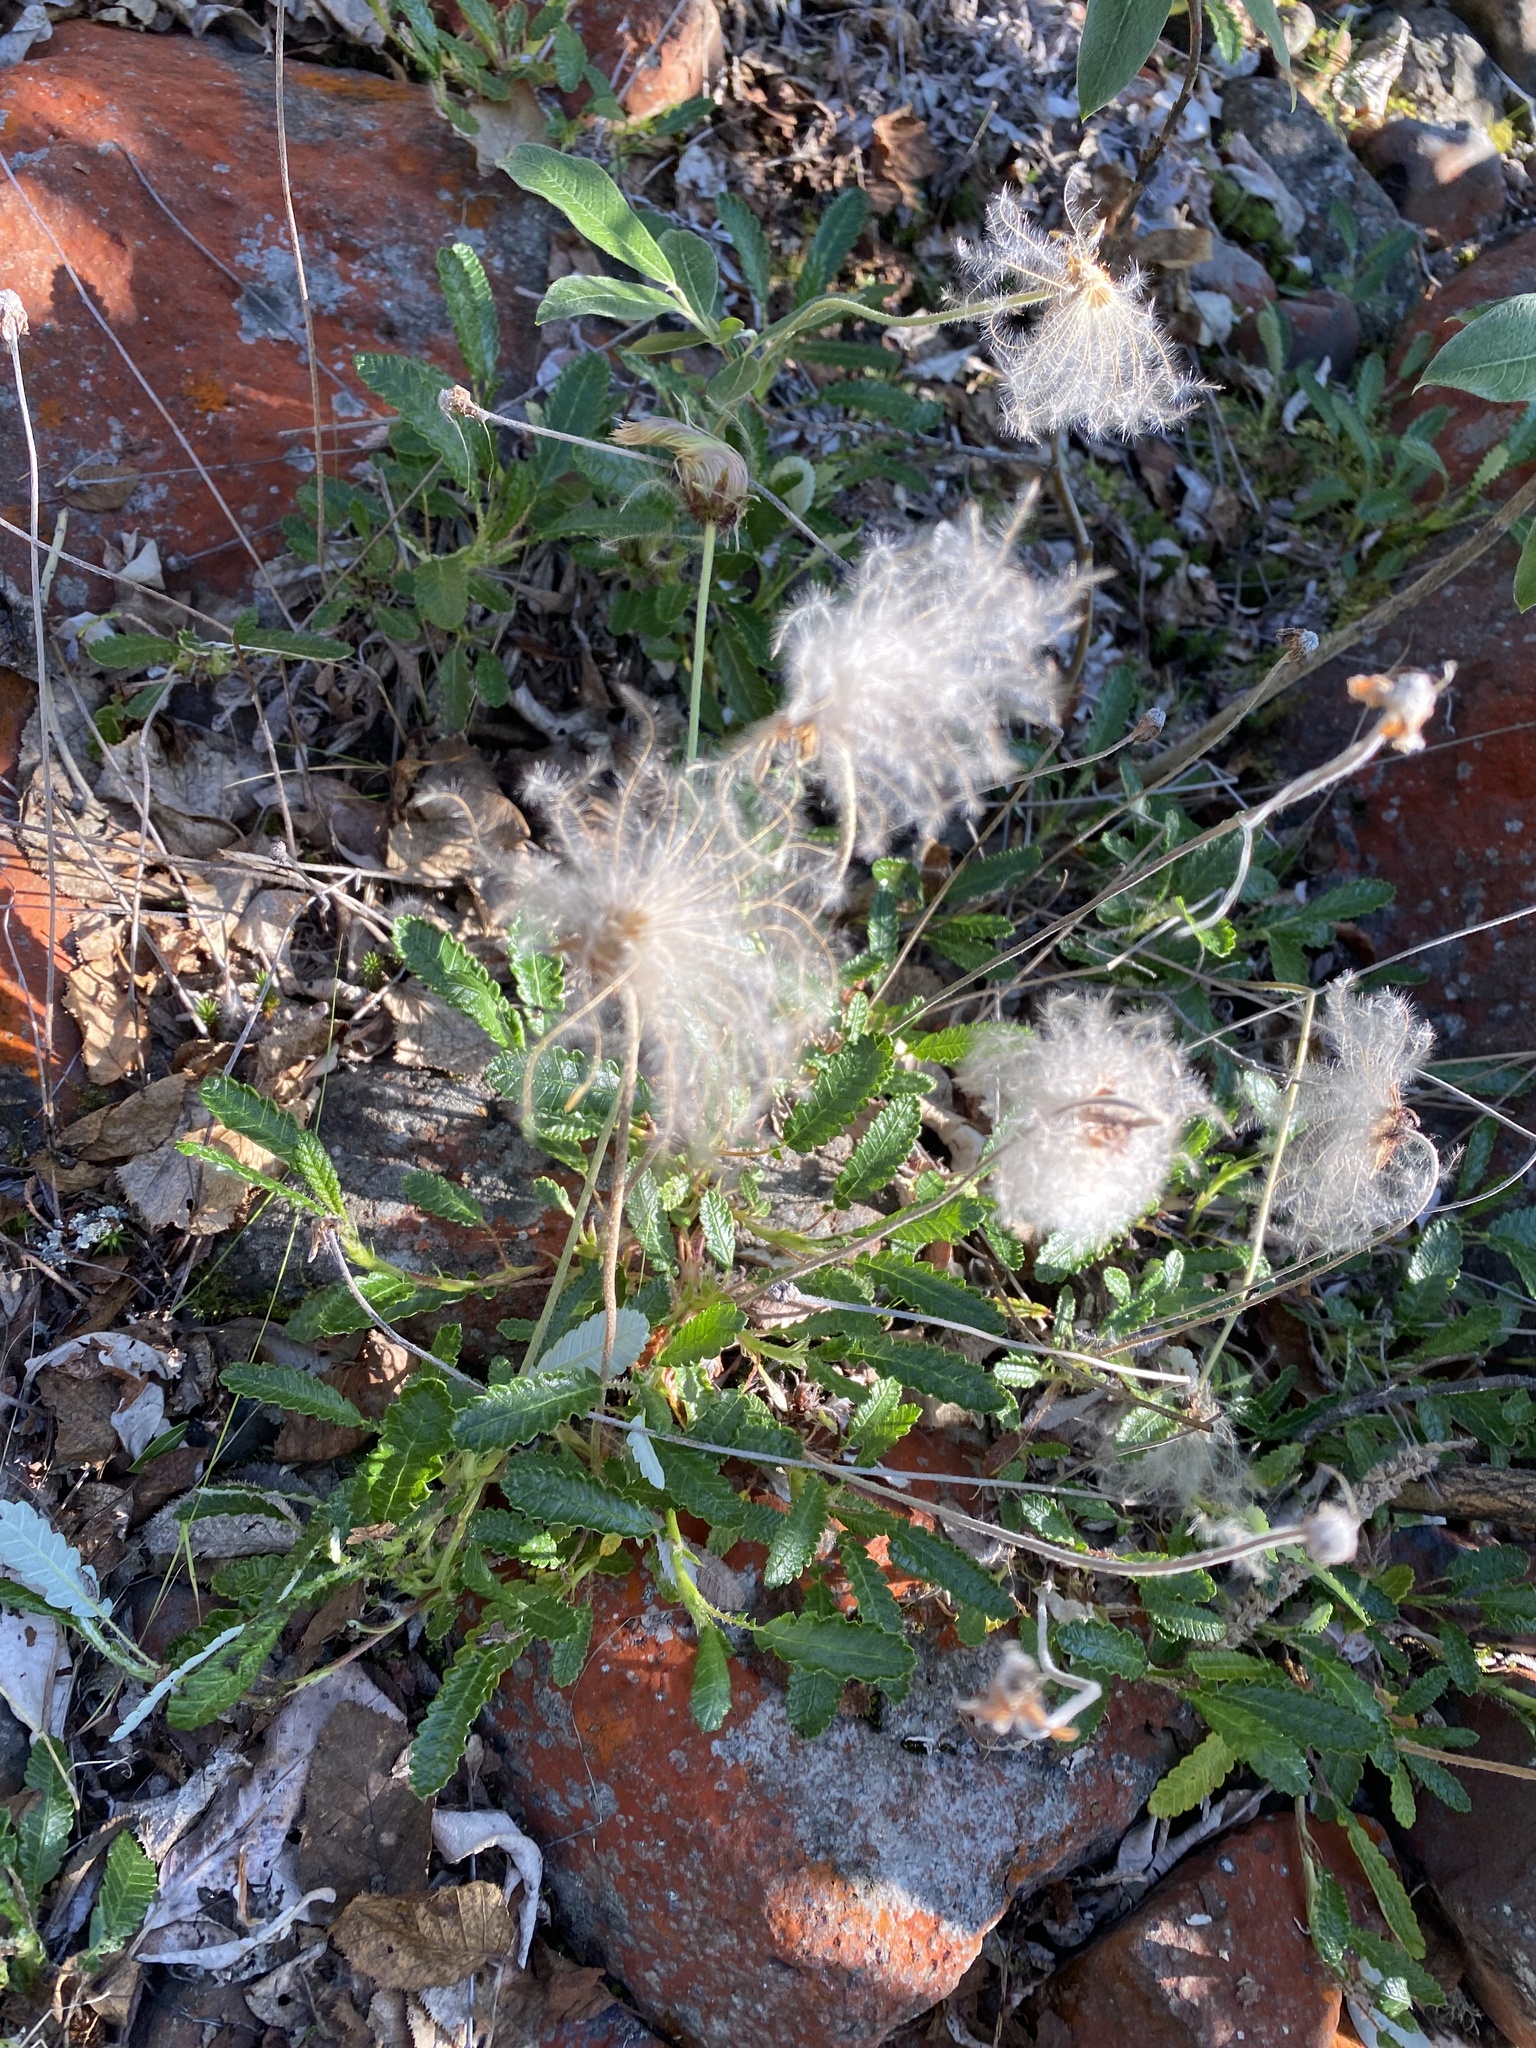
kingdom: Plantae
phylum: Tracheophyta
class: Magnoliopsida
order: Rosales
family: Rosaceae
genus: Dryas
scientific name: Dryas grandis
